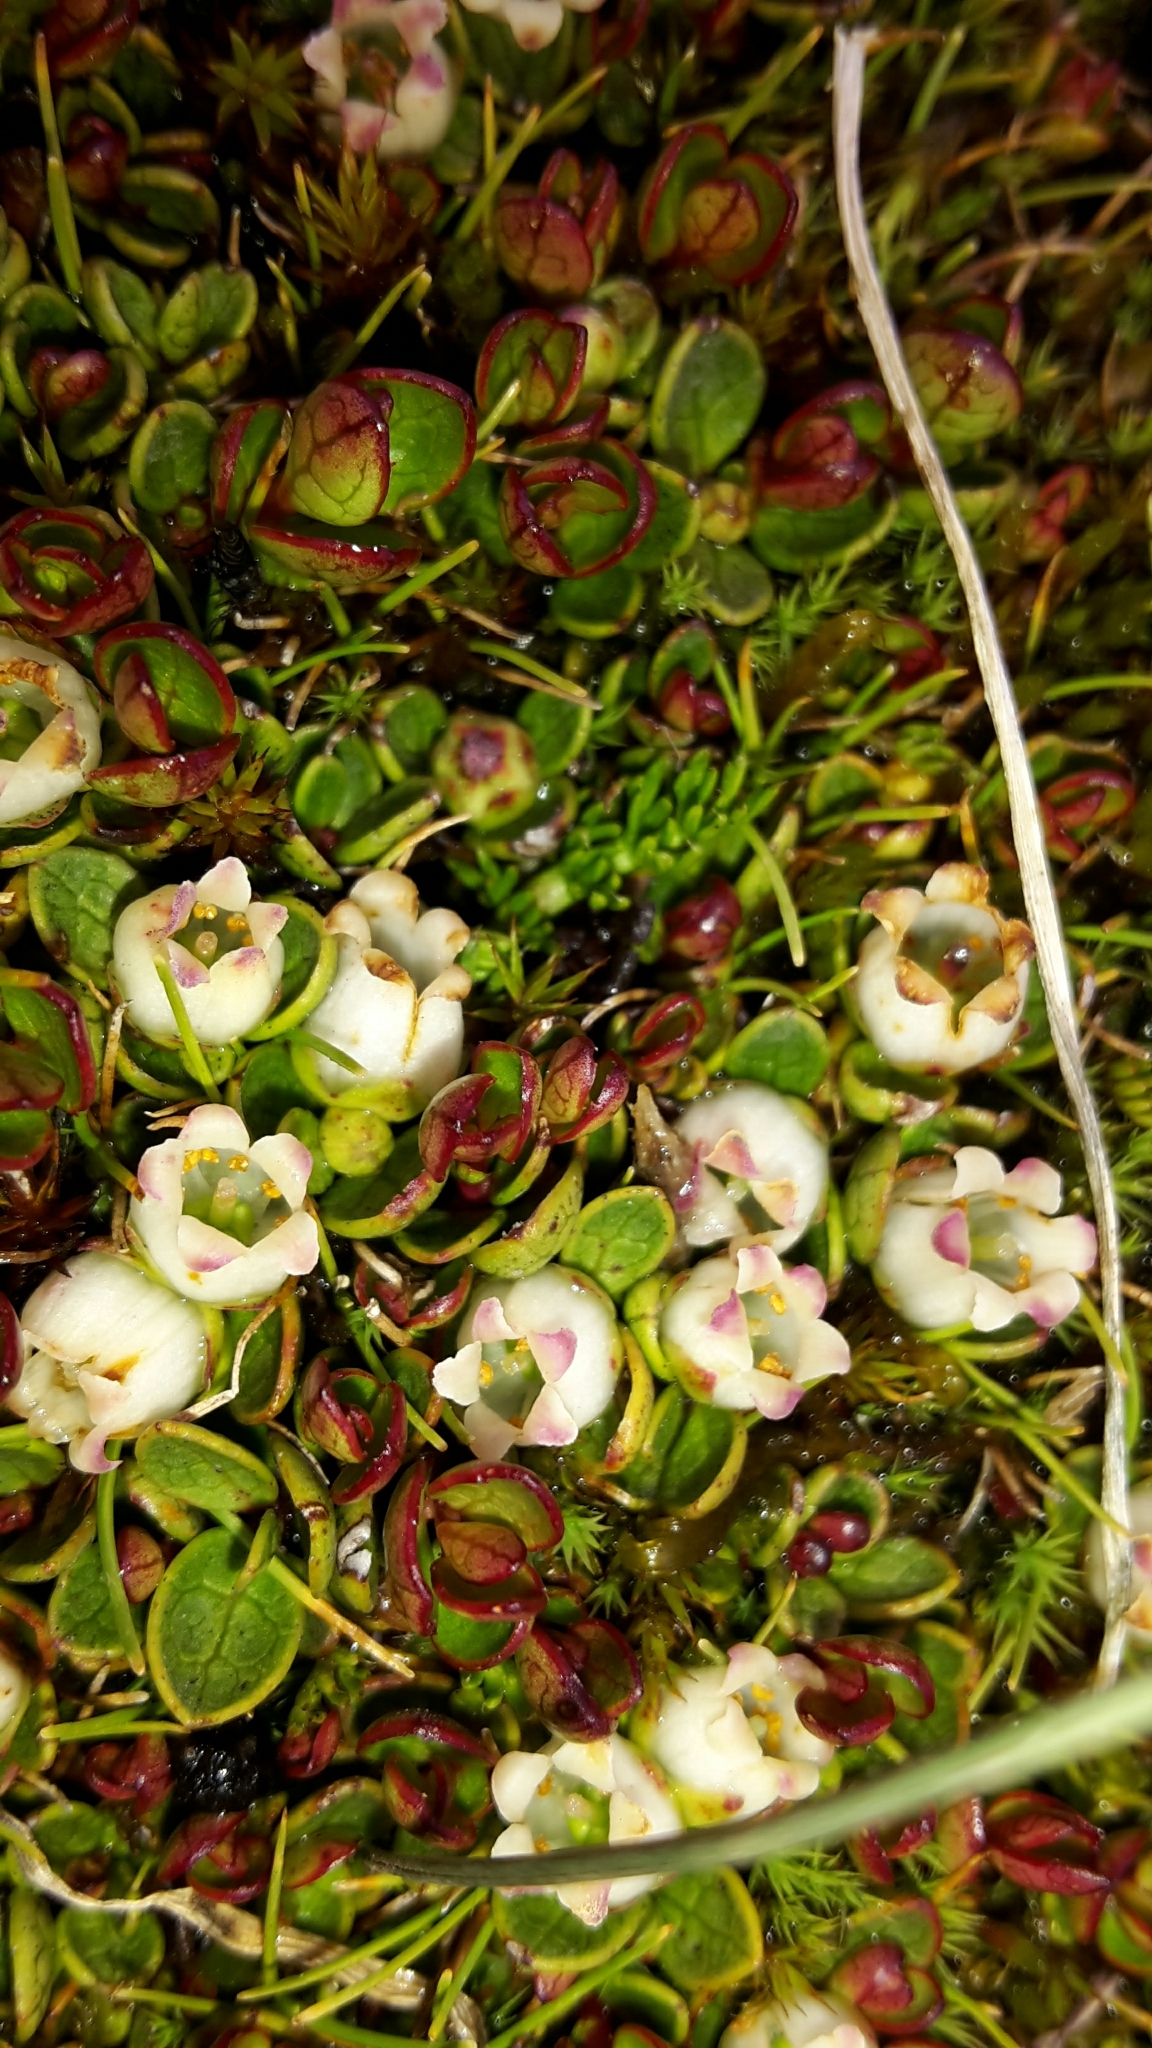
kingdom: Plantae
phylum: Tracheophyta
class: Magnoliopsida
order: Ericales
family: Ericaceae
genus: Gaultheria
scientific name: Gaultheria nubicola
